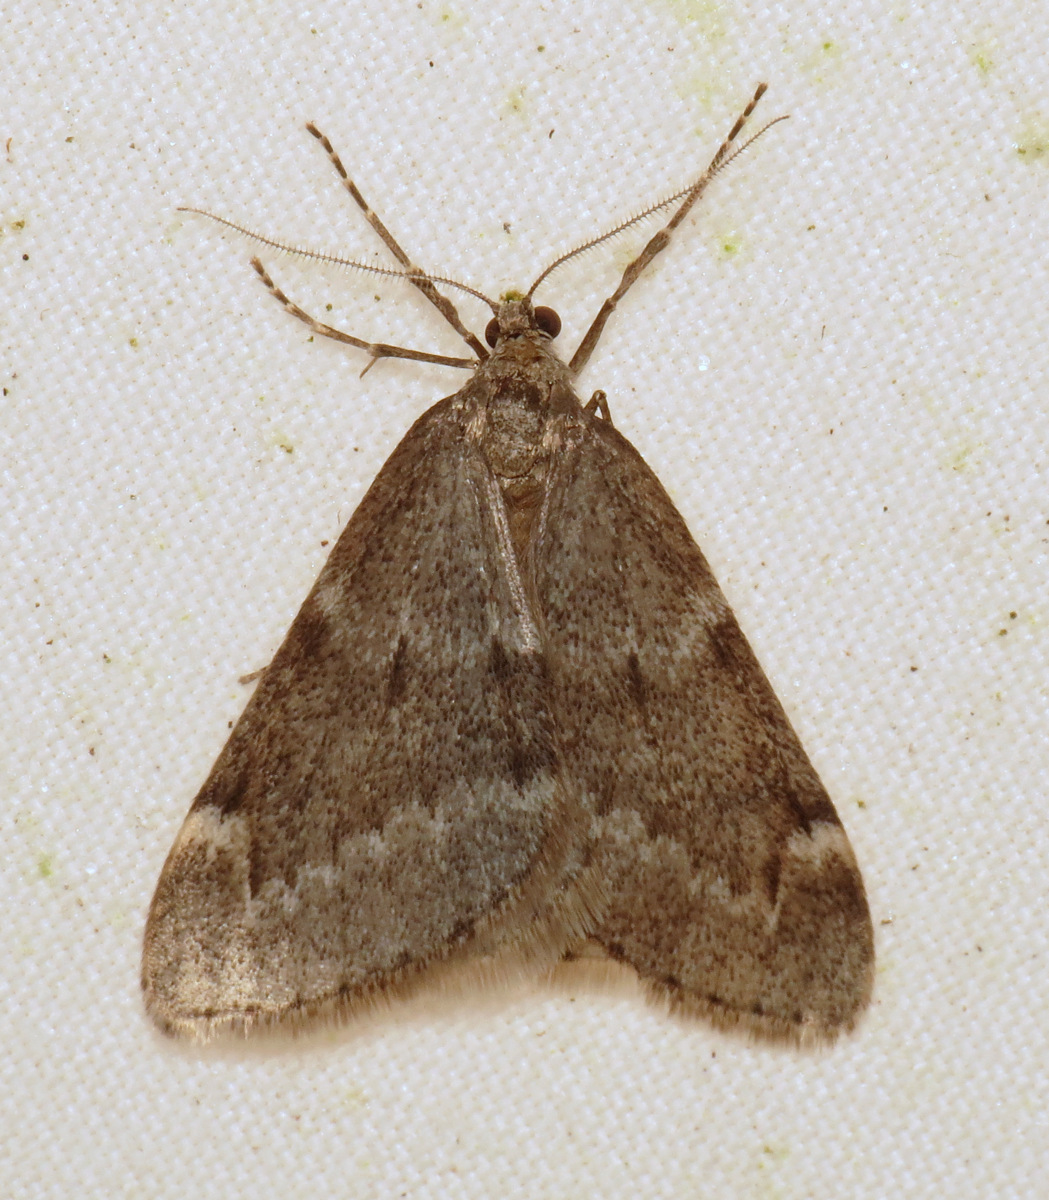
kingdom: Animalia
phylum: Arthropoda
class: Insecta
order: Lepidoptera
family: Geometridae
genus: Alsophila
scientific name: Alsophila pometaria
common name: Fall cankerworm
